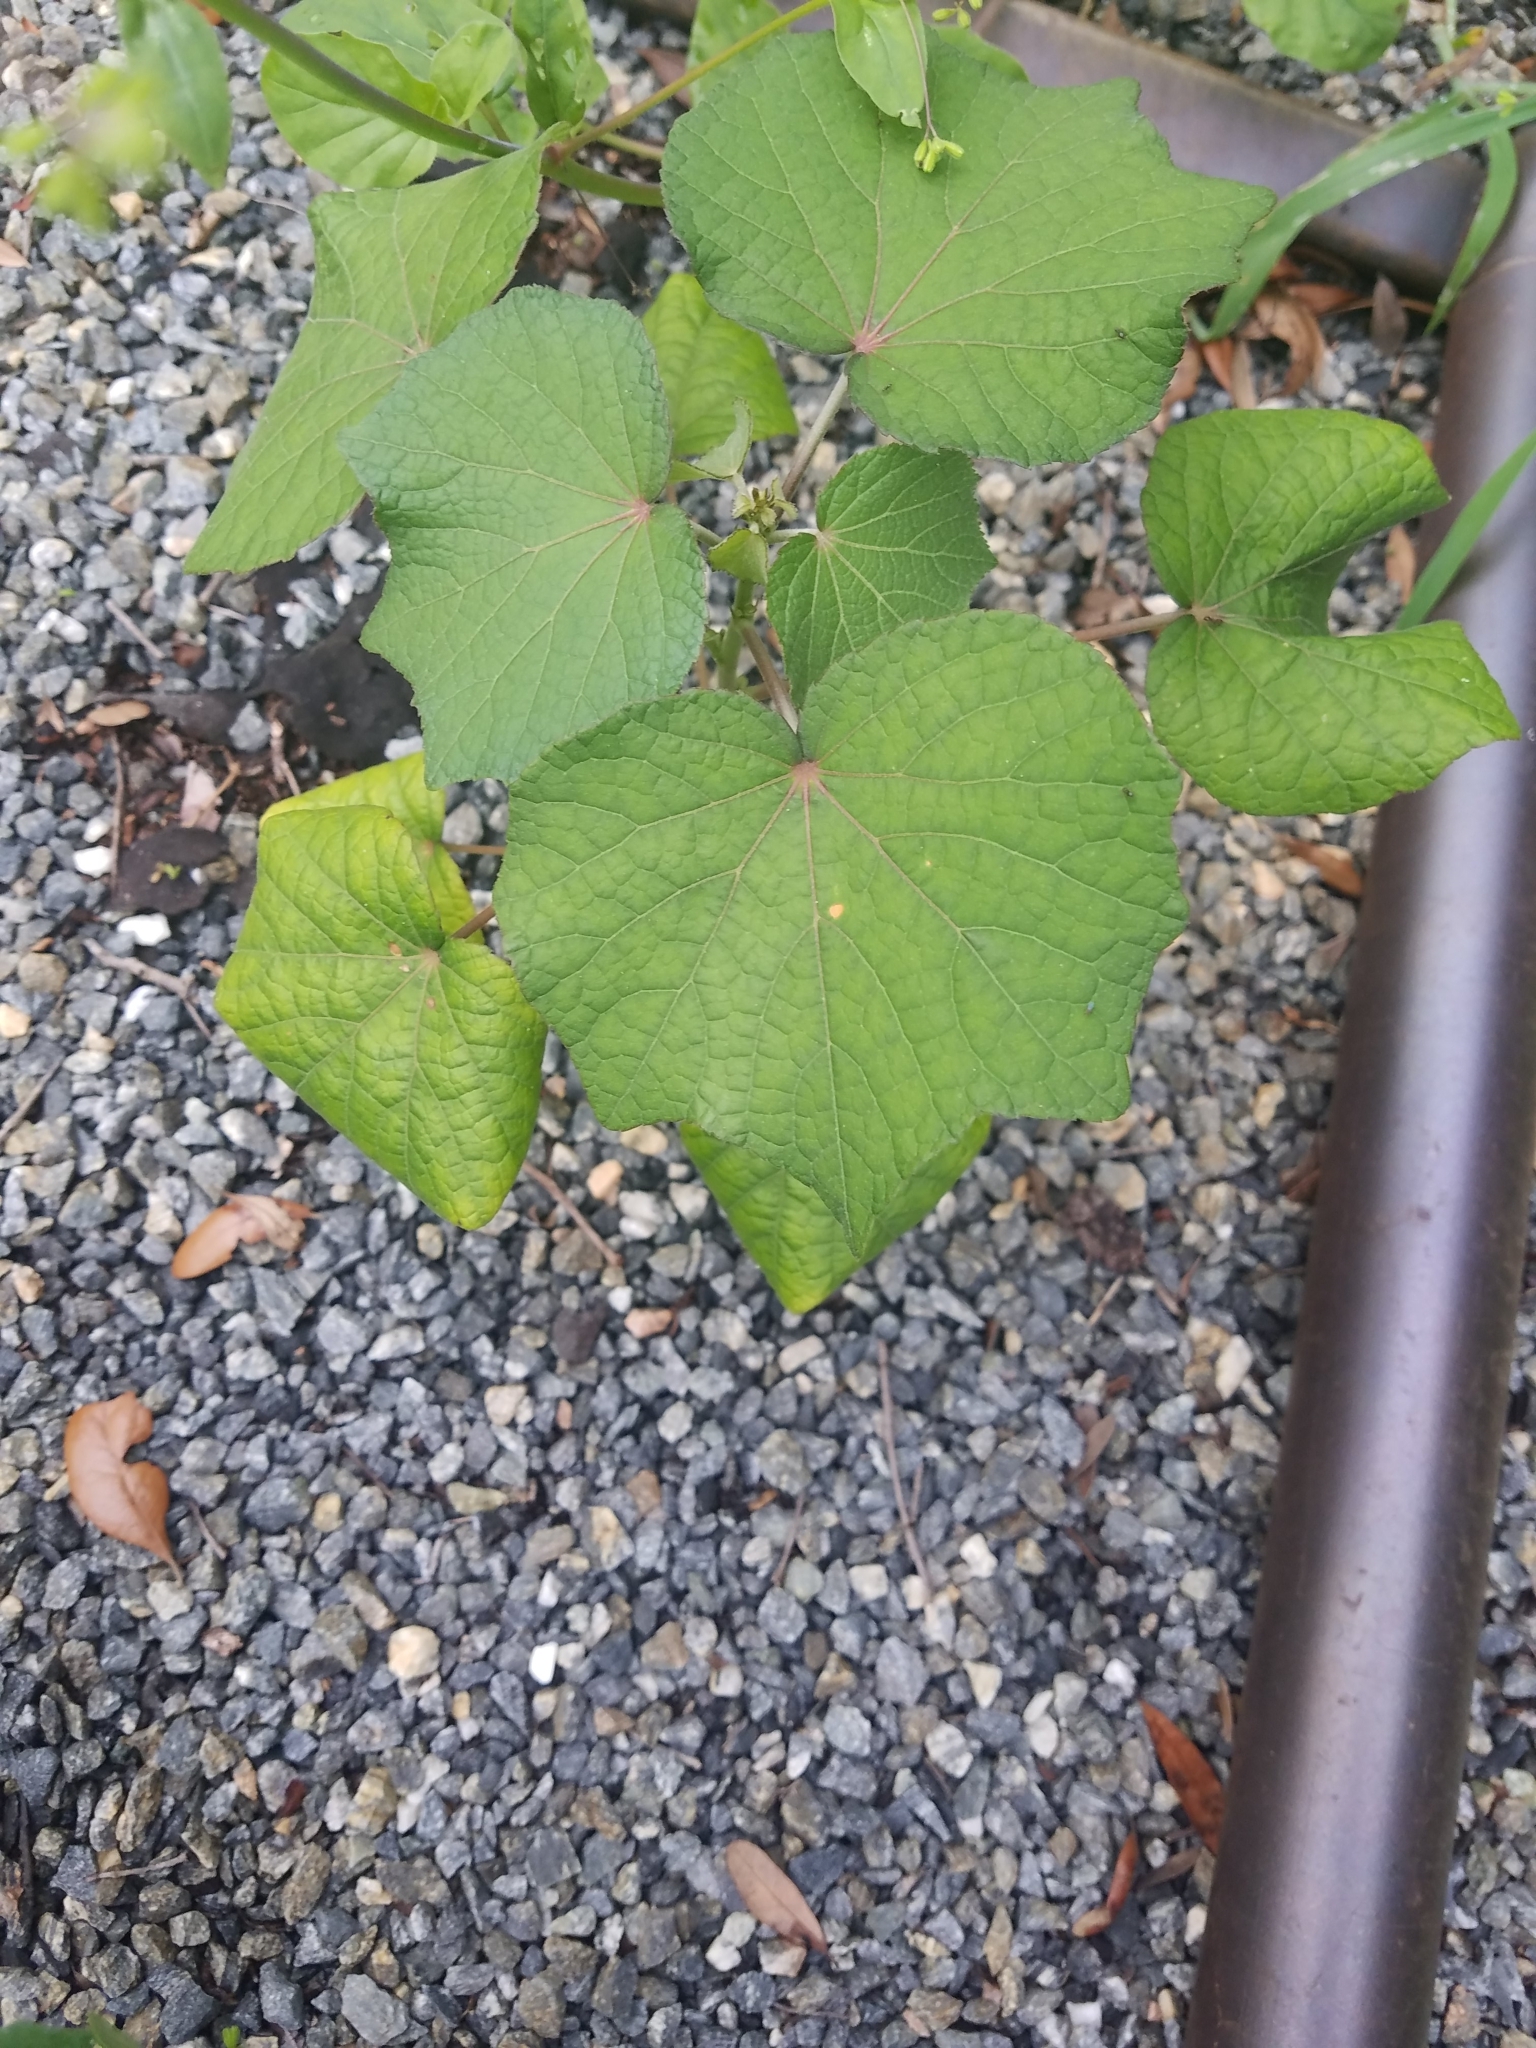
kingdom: Plantae
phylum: Tracheophyta
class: Magnoliopsida
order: Malvales
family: Malvaceae
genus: Urena
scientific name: Urena lobata
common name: Caesarweed
